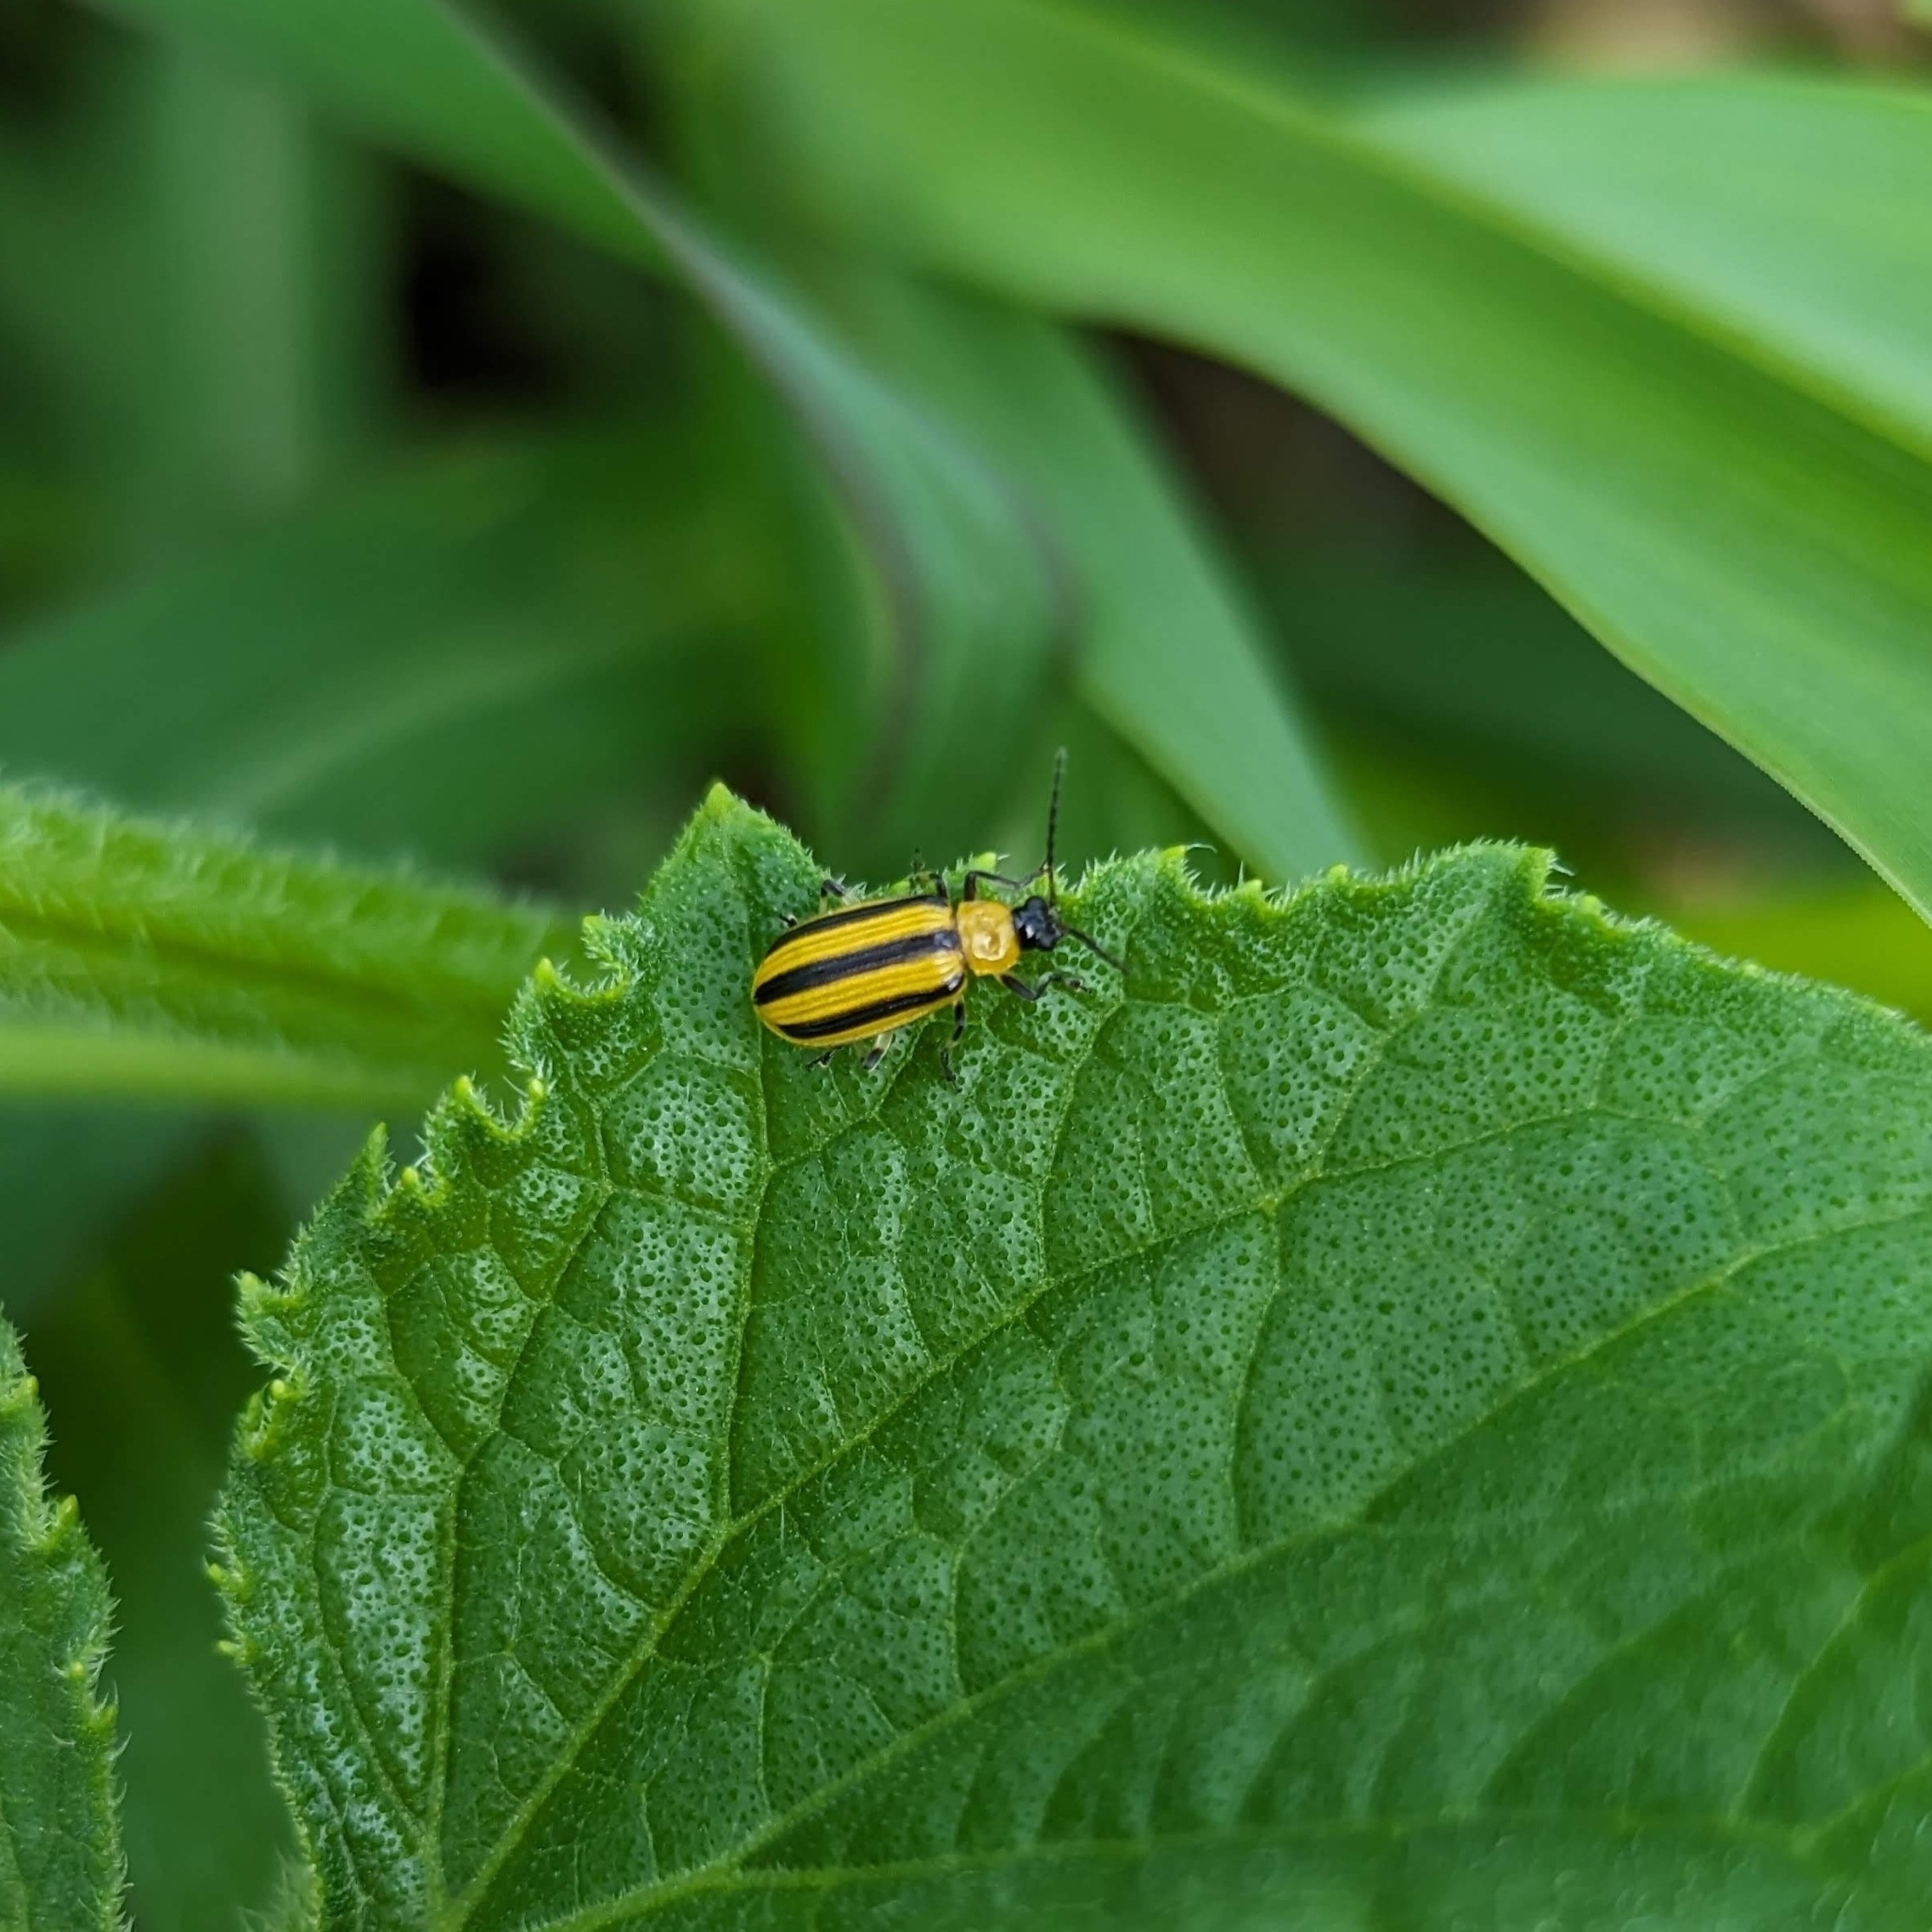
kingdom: Animalia
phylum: Arthropoda
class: Insecta
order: Coleoptera
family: Chrysomelidae
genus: Acalymma
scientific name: Acalymma vittatum
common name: Striped cucumber beetle
